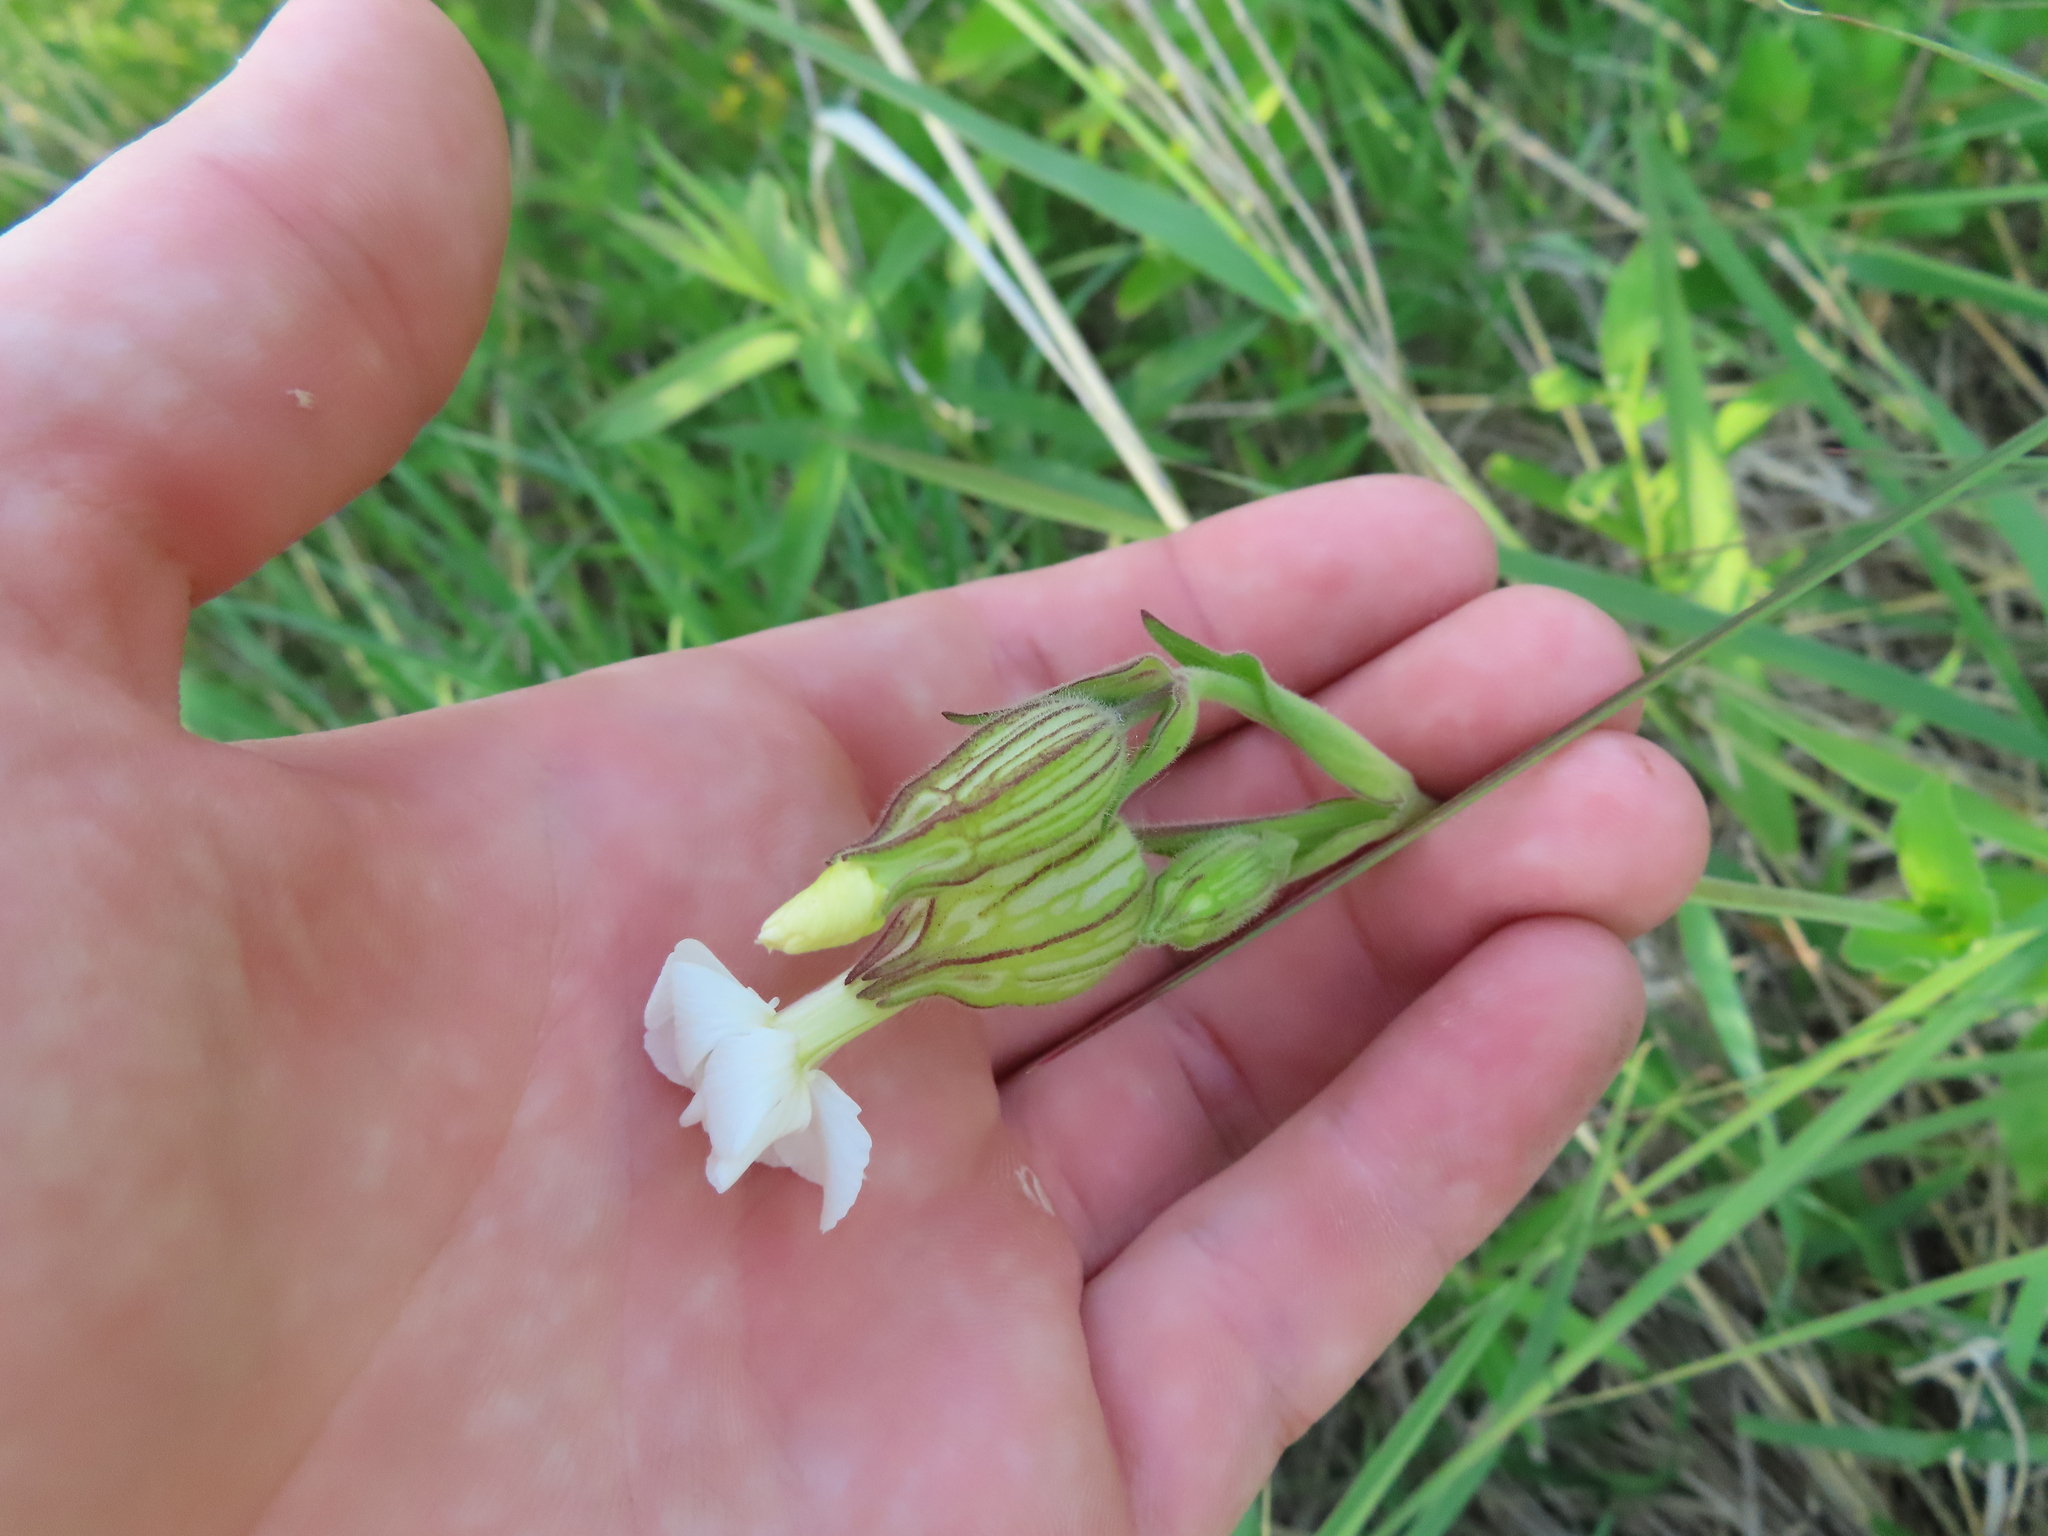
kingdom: Plantae
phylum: Tracheophyta
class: Magnoliopsida
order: Caryophyllales
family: Caryophyllaceae
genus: Silene
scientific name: Silene latifolia
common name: White campion
